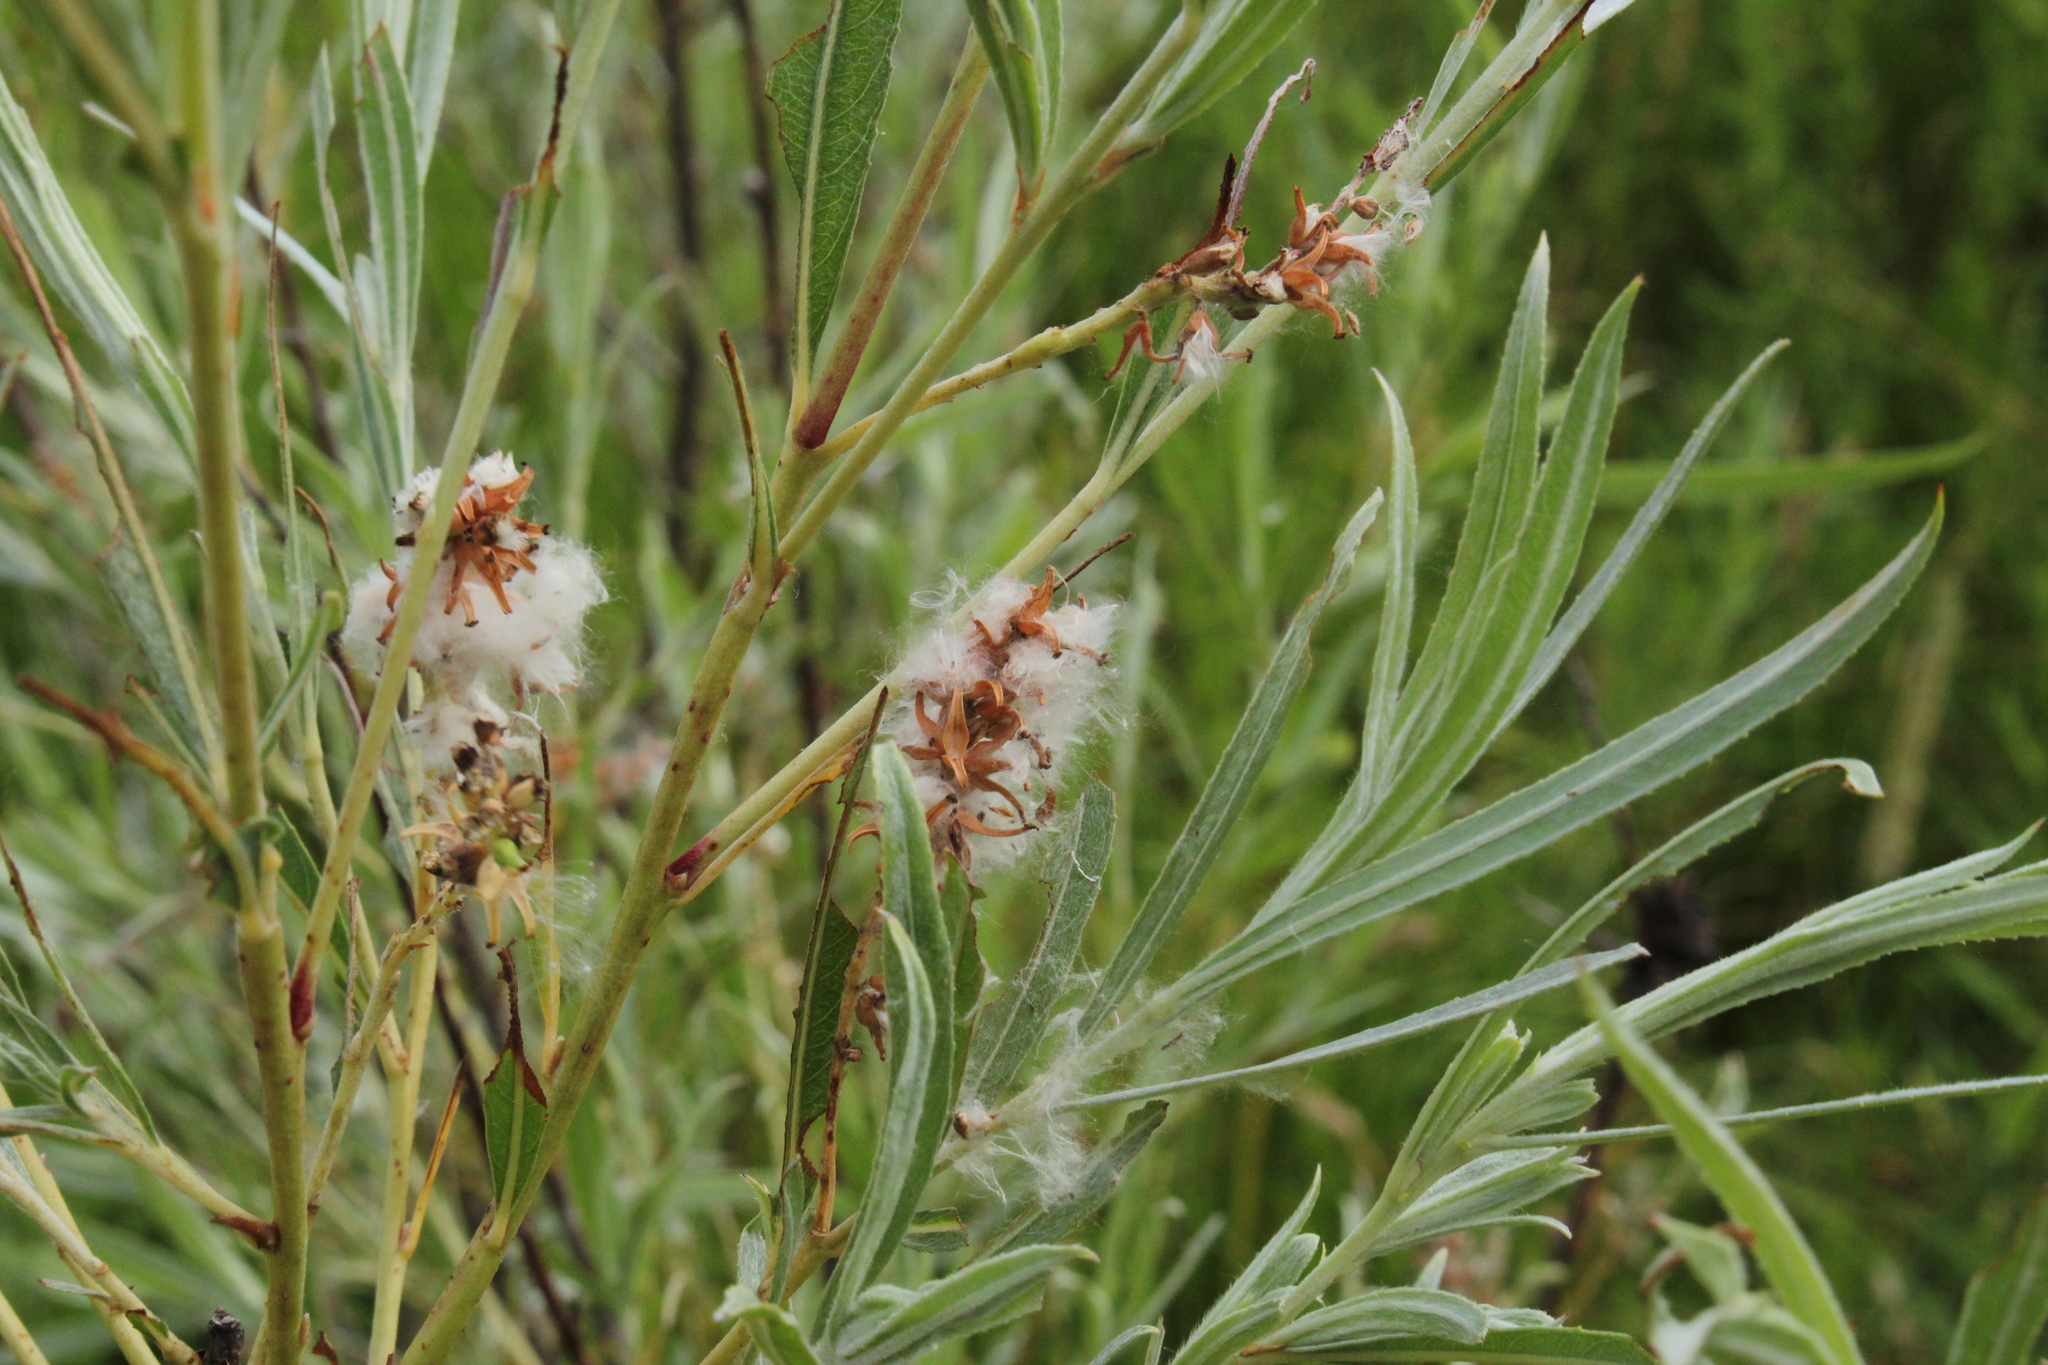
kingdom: Plantae
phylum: Tracheophyta
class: Magnoliopsida
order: Malpighiales
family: Salicaceae
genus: Salix
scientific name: Salix interior
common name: Sandbar willow
